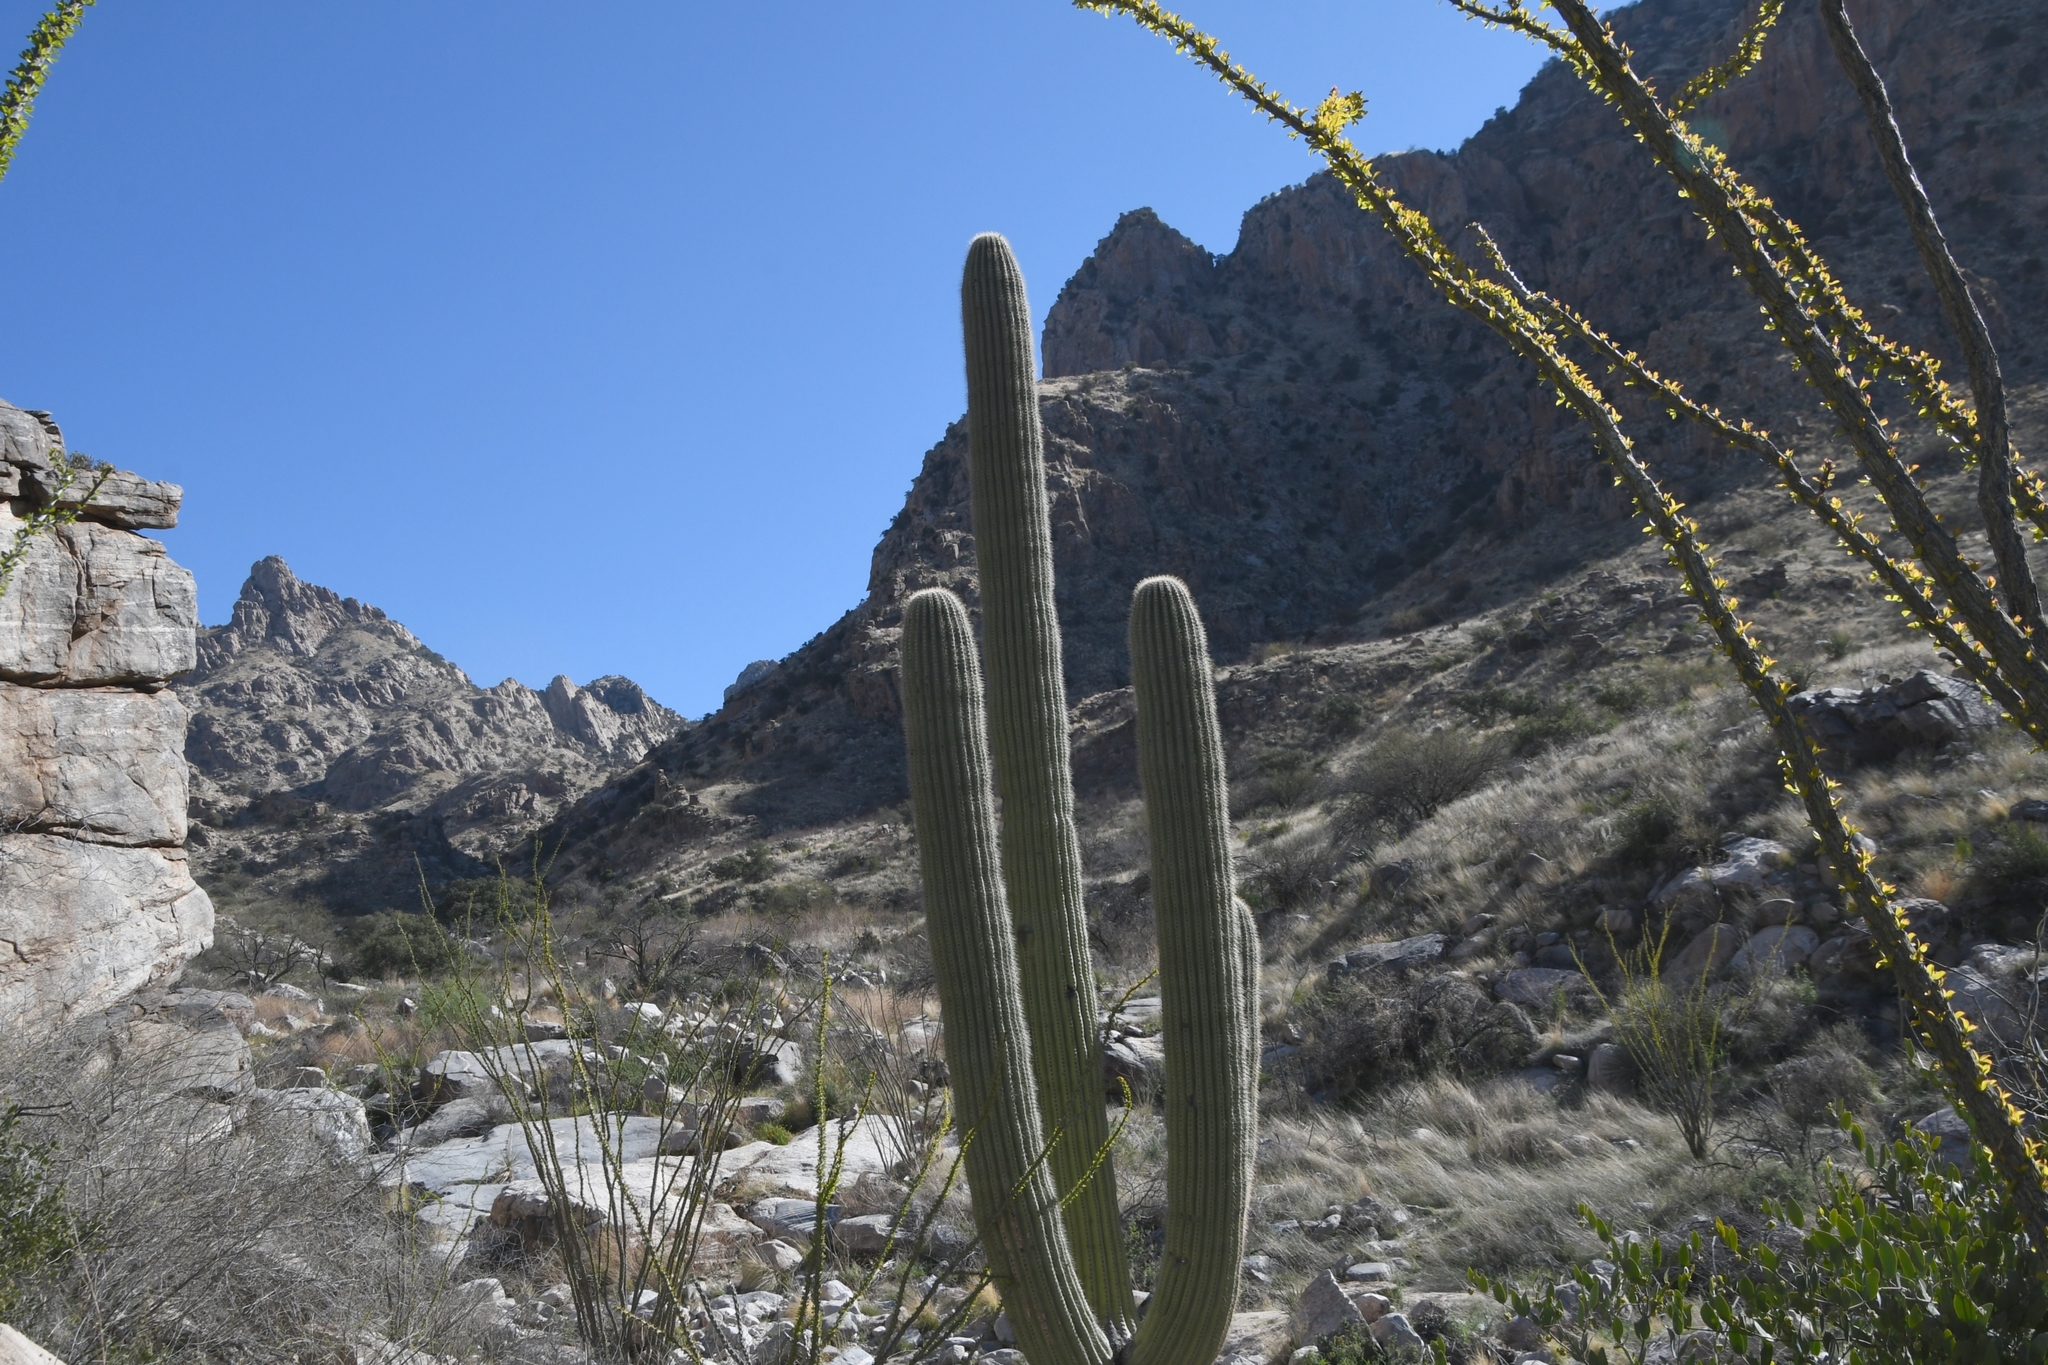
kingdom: Plantae
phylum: Tracheophyta
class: Magnoliopsida
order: Caryophyllales
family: Cactaceae
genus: Carnegiea
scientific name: Carnegiea gigantea
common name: Saguaro
